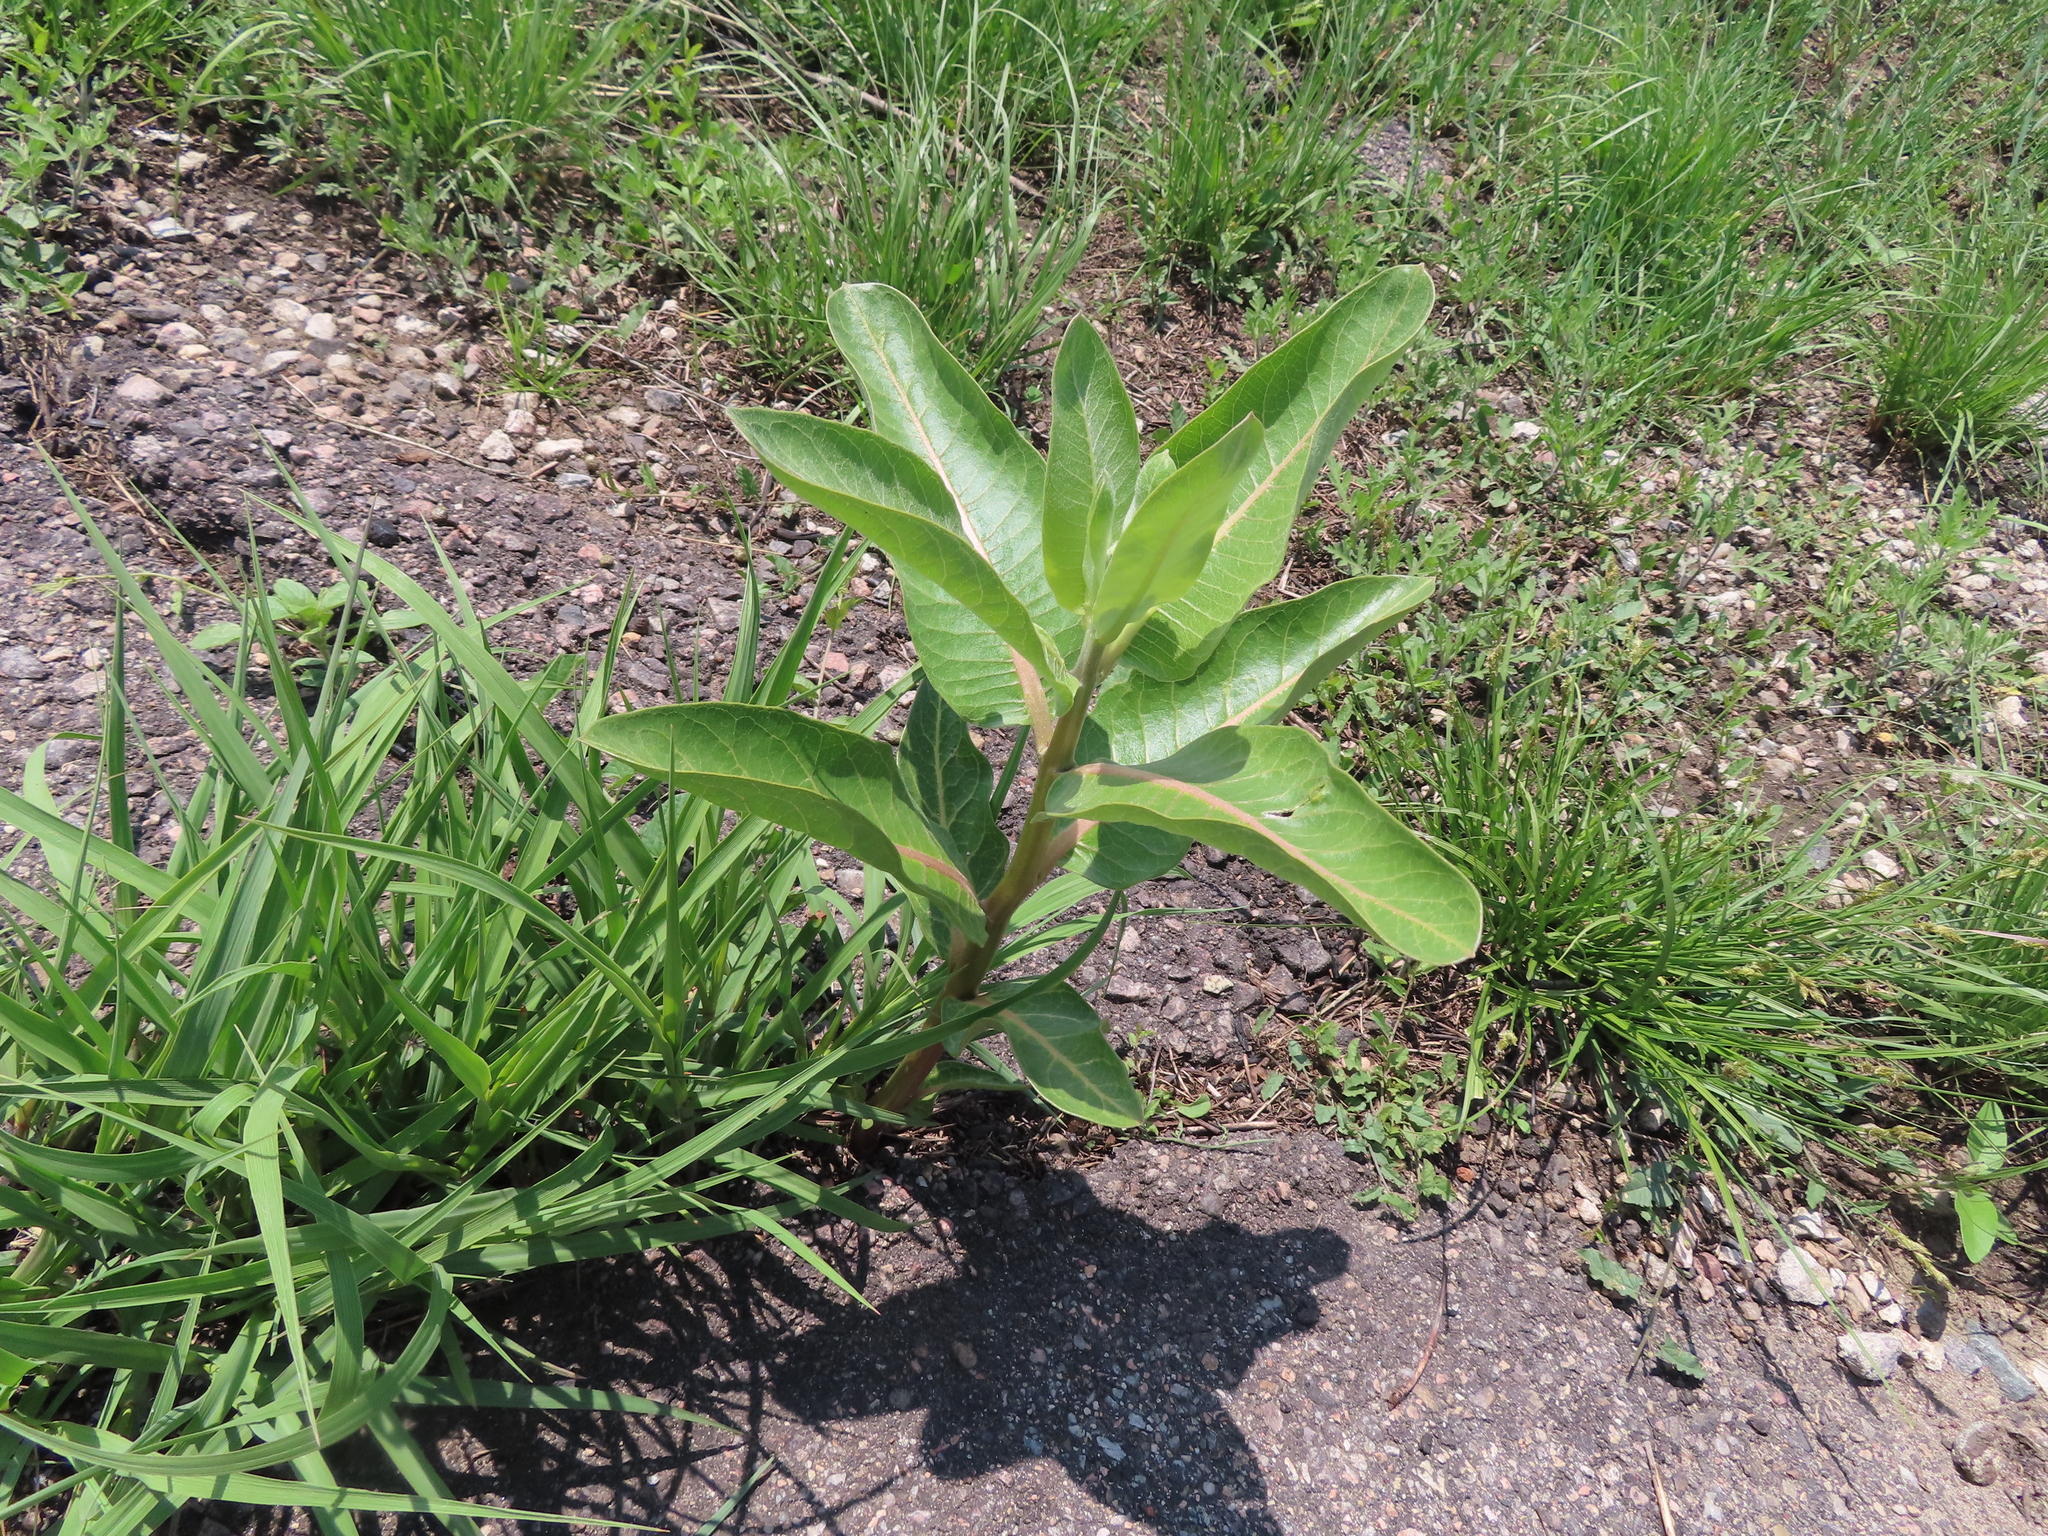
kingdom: Plantae
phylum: Tracheophyta
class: Magnoliopsida
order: Gentianales
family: Apocynaceae
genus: Asclepias
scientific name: Asclepias speciosa
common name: Showy milkweed
